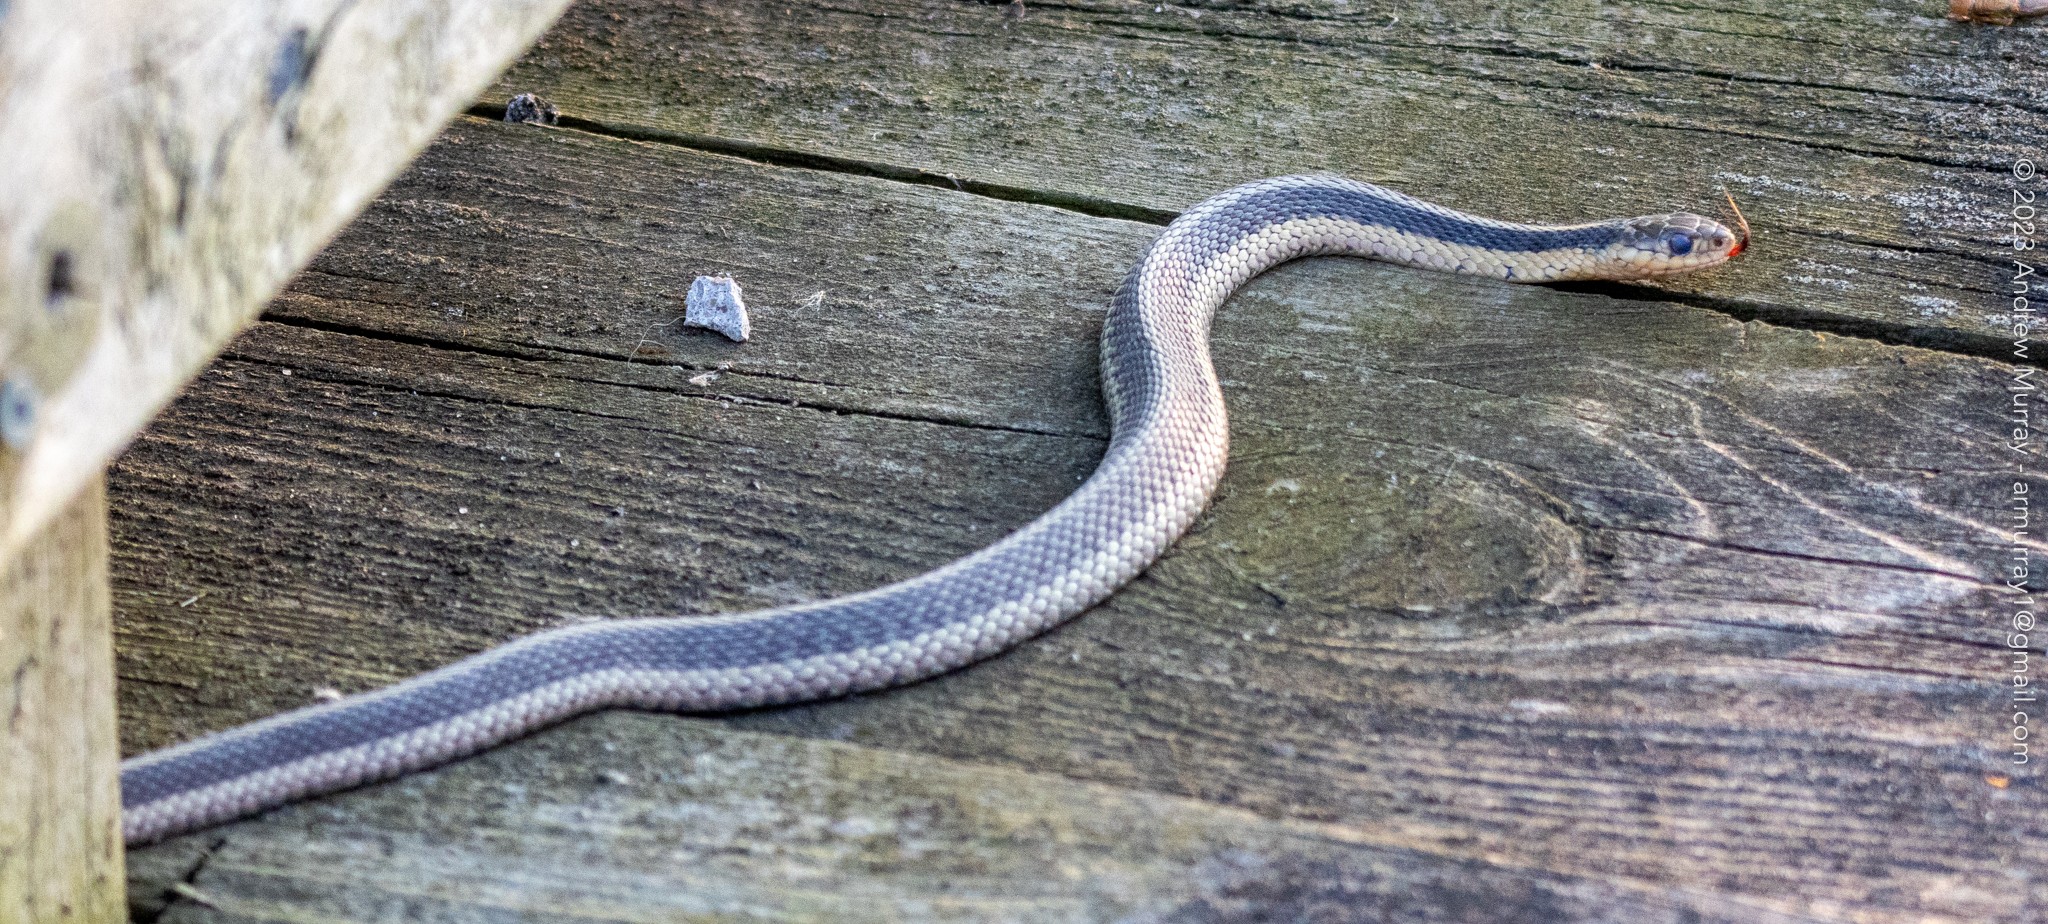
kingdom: Animalia
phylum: Chordata
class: Squamata
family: Colubridae
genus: Thamnophis
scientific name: Thamnophis sirtalis
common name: Common garter snake
